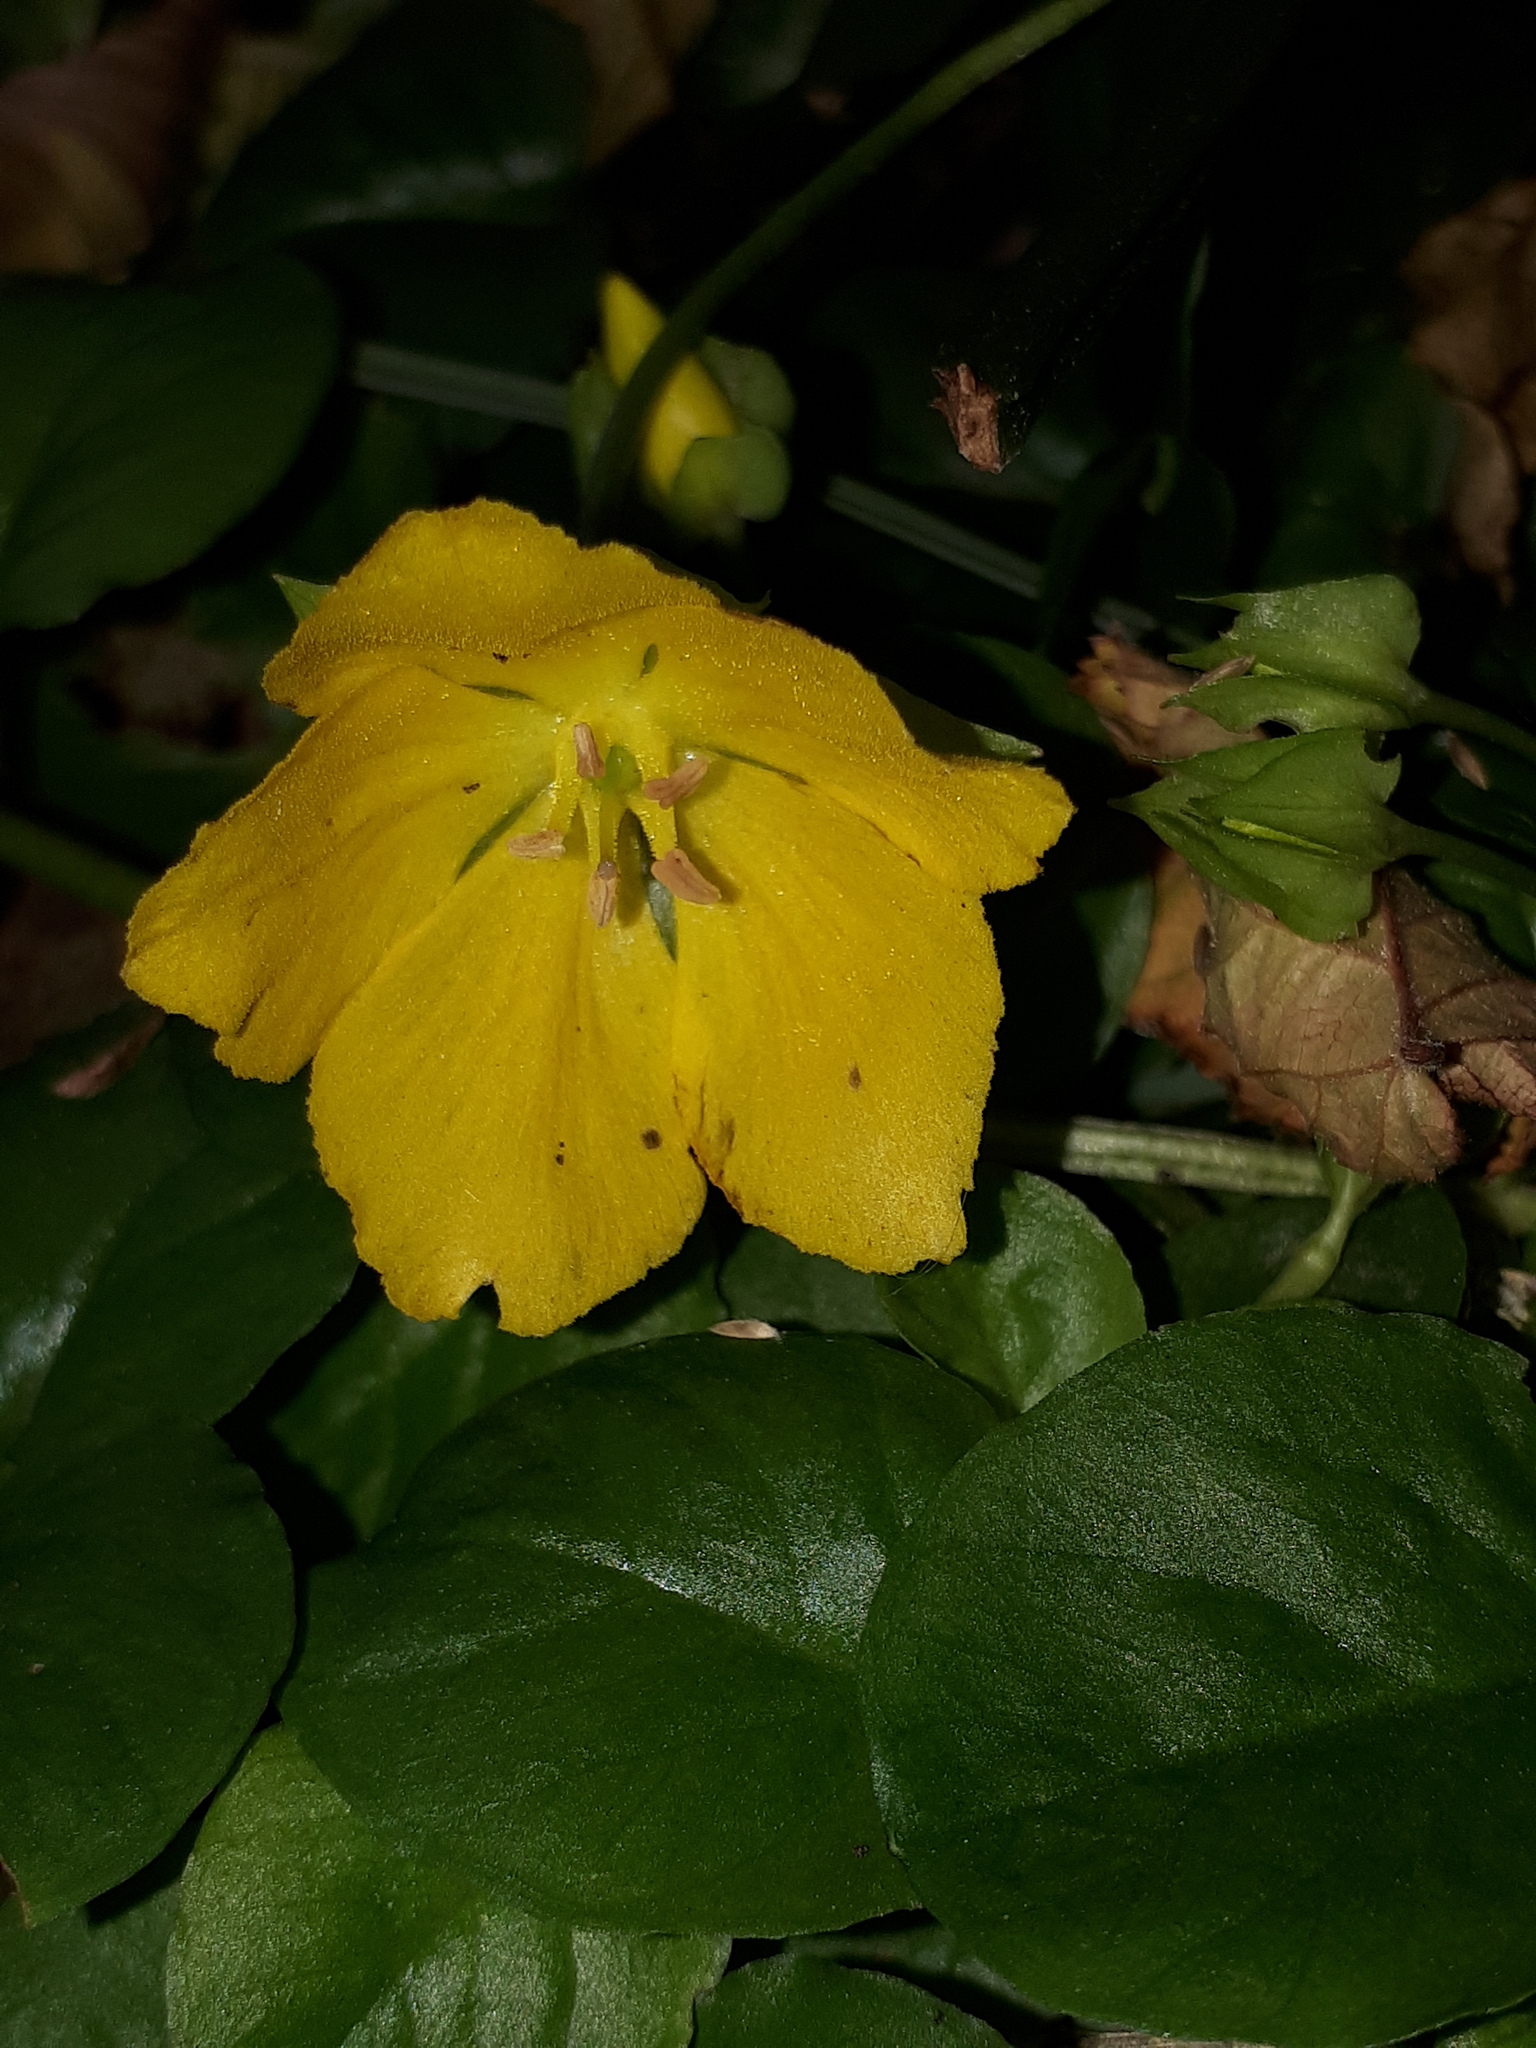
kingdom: Plantae
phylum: Tracheophyta
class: Magnoliopsida
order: Ericales
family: Primulaceae
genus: Lysimachia
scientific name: Lysimachia nummularia
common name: Moneywort
